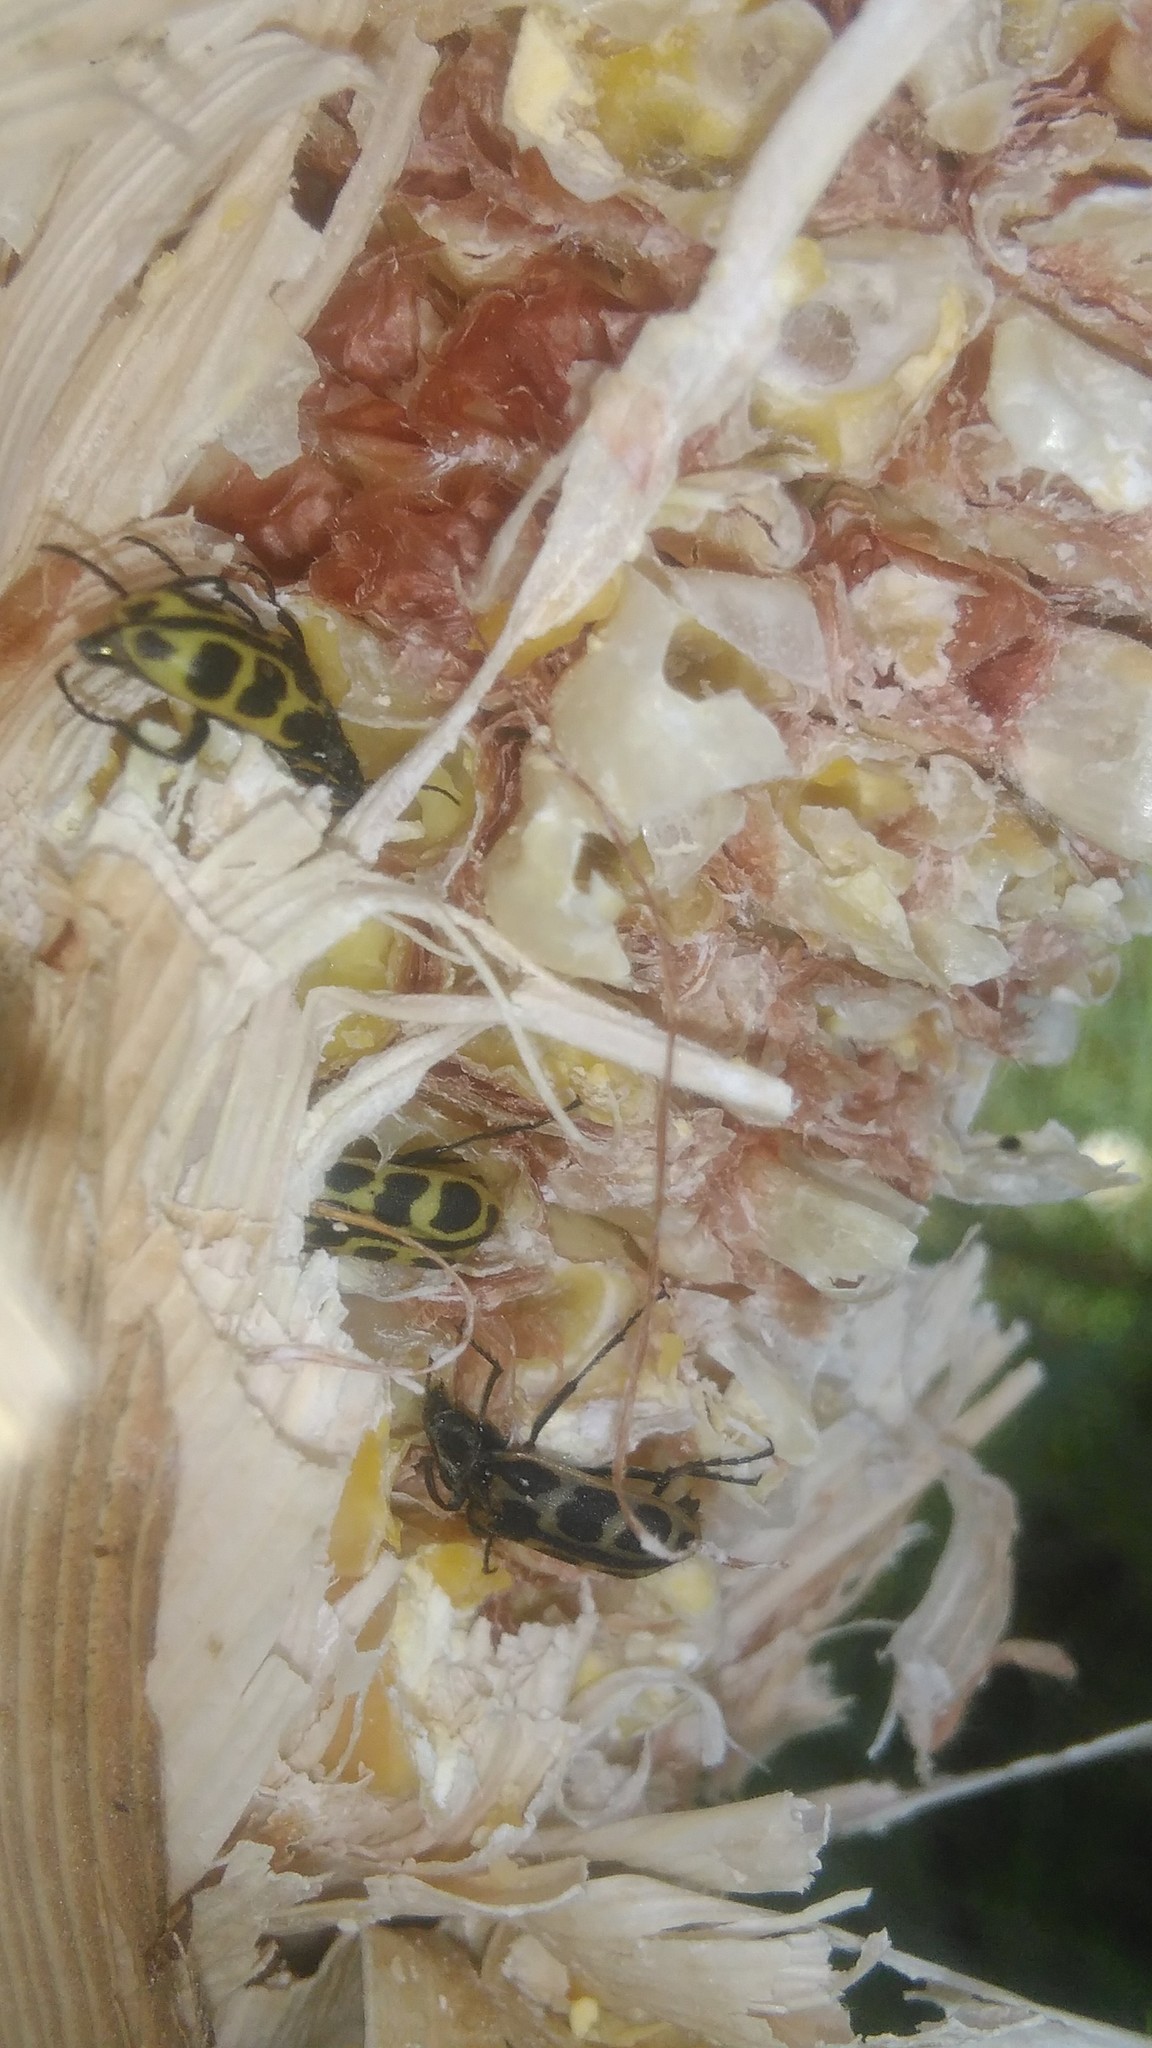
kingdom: Animalia
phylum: Arthropoda
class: Insecta
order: Coleoptera
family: Melyridae
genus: Astylus
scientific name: Astylus atromaculatus
